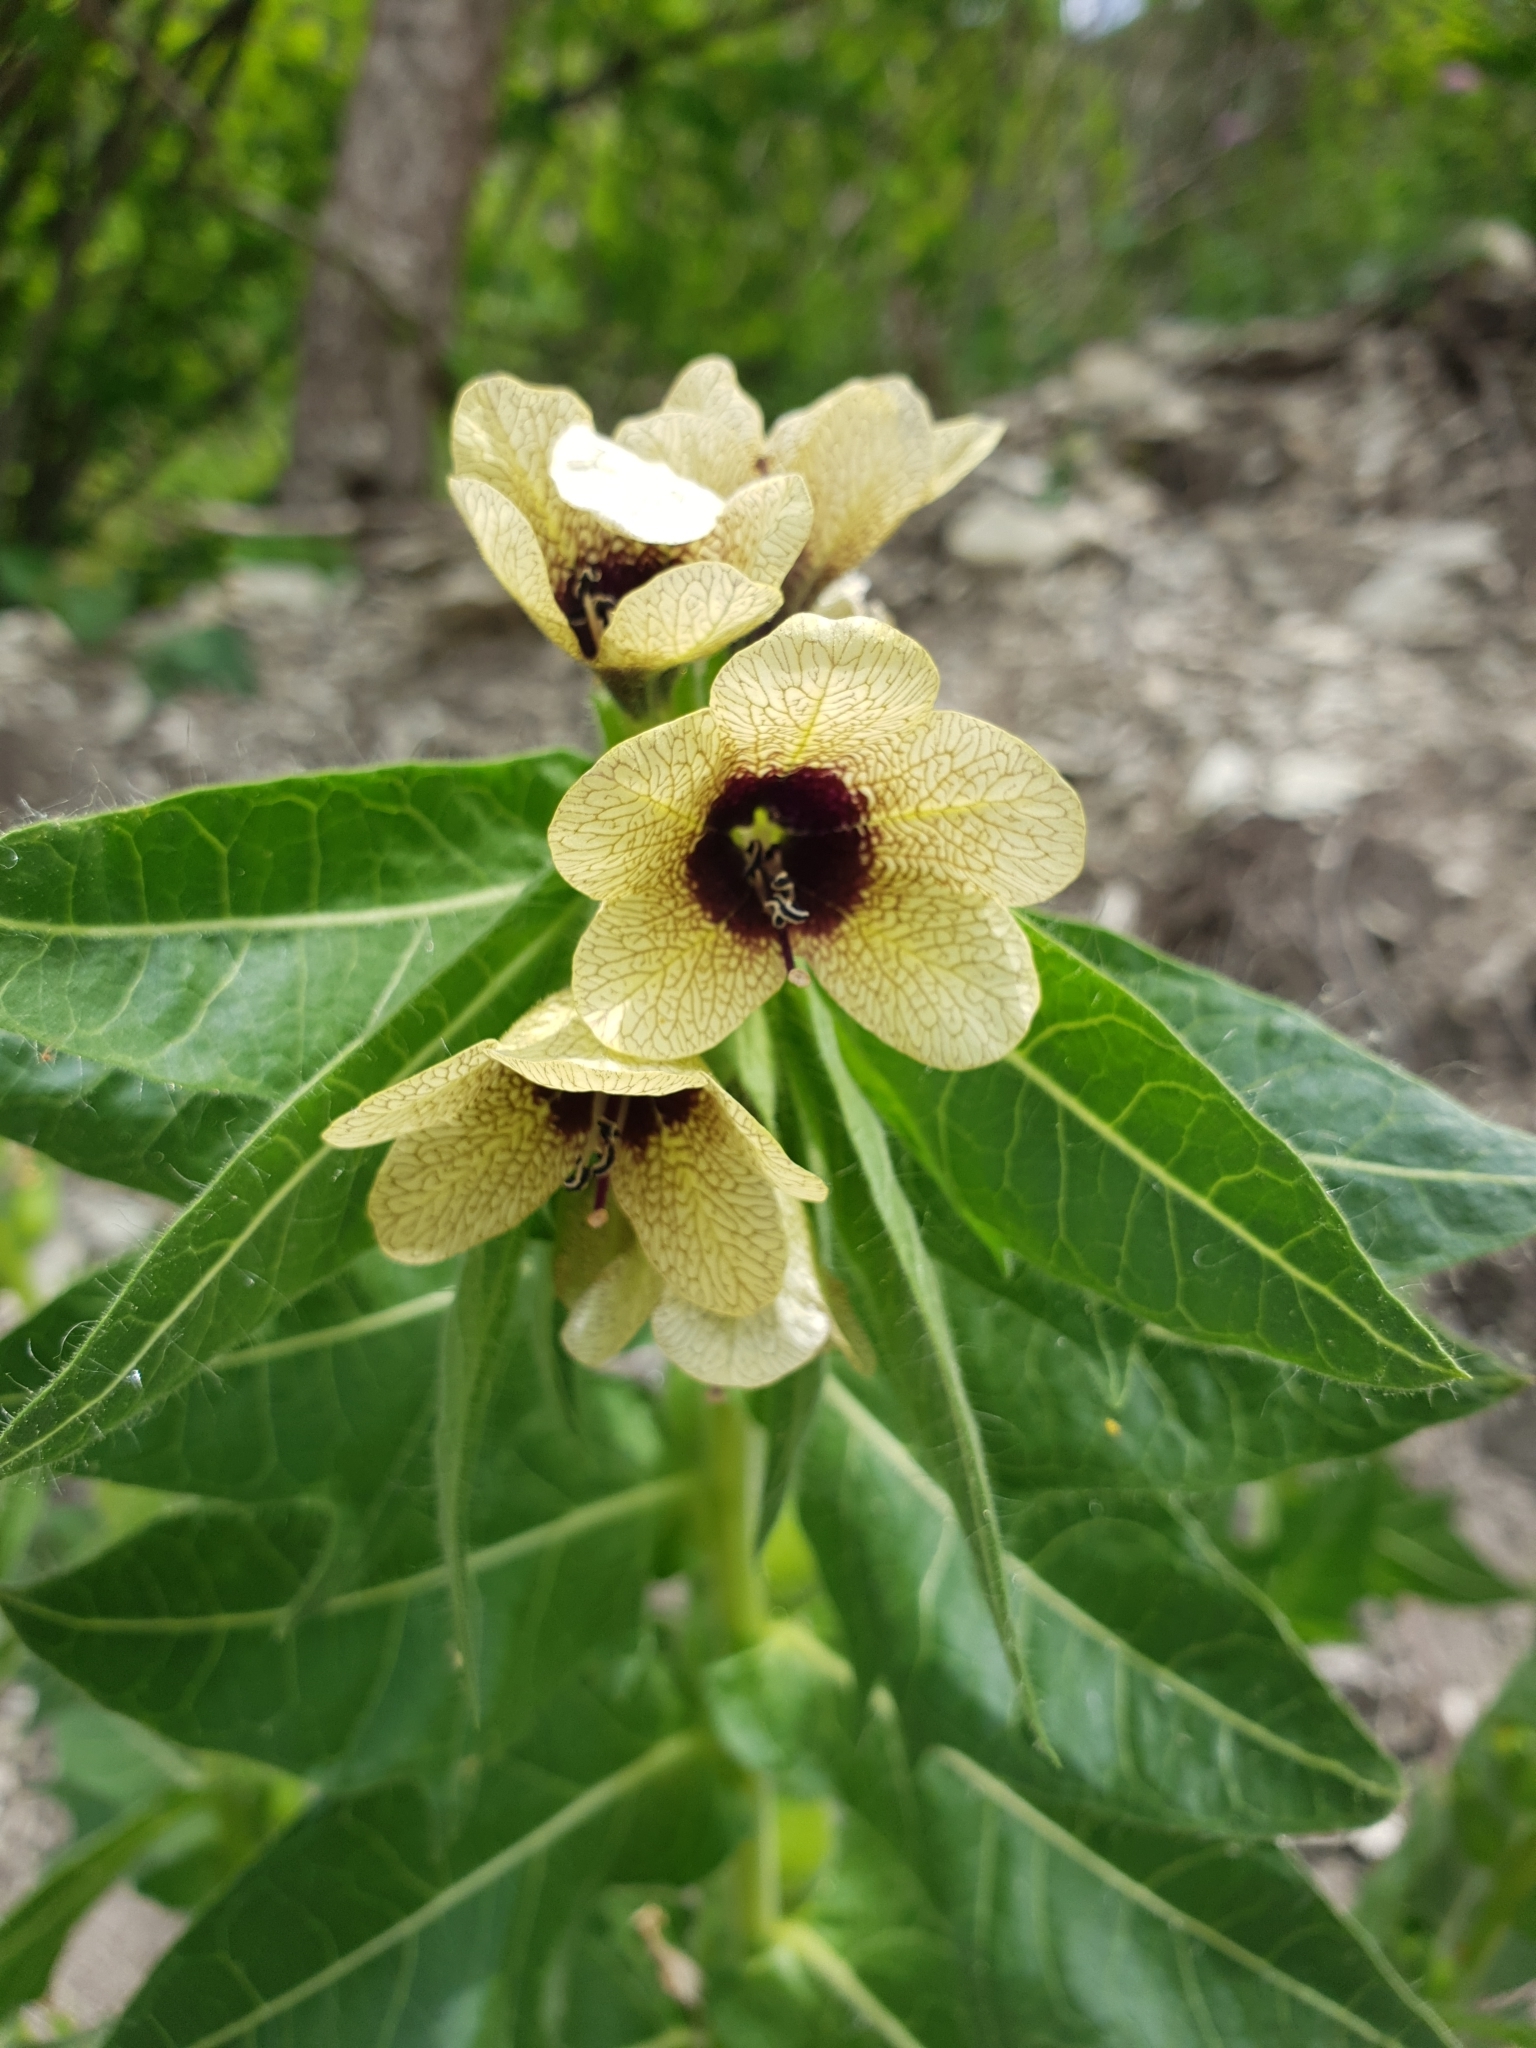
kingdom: Plantae
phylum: Tracheophyta
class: Magnoliopsida
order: Solanales
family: Solanaceae
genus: Hyoscyamus
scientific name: Hyoscyamus niger
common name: Henbane
